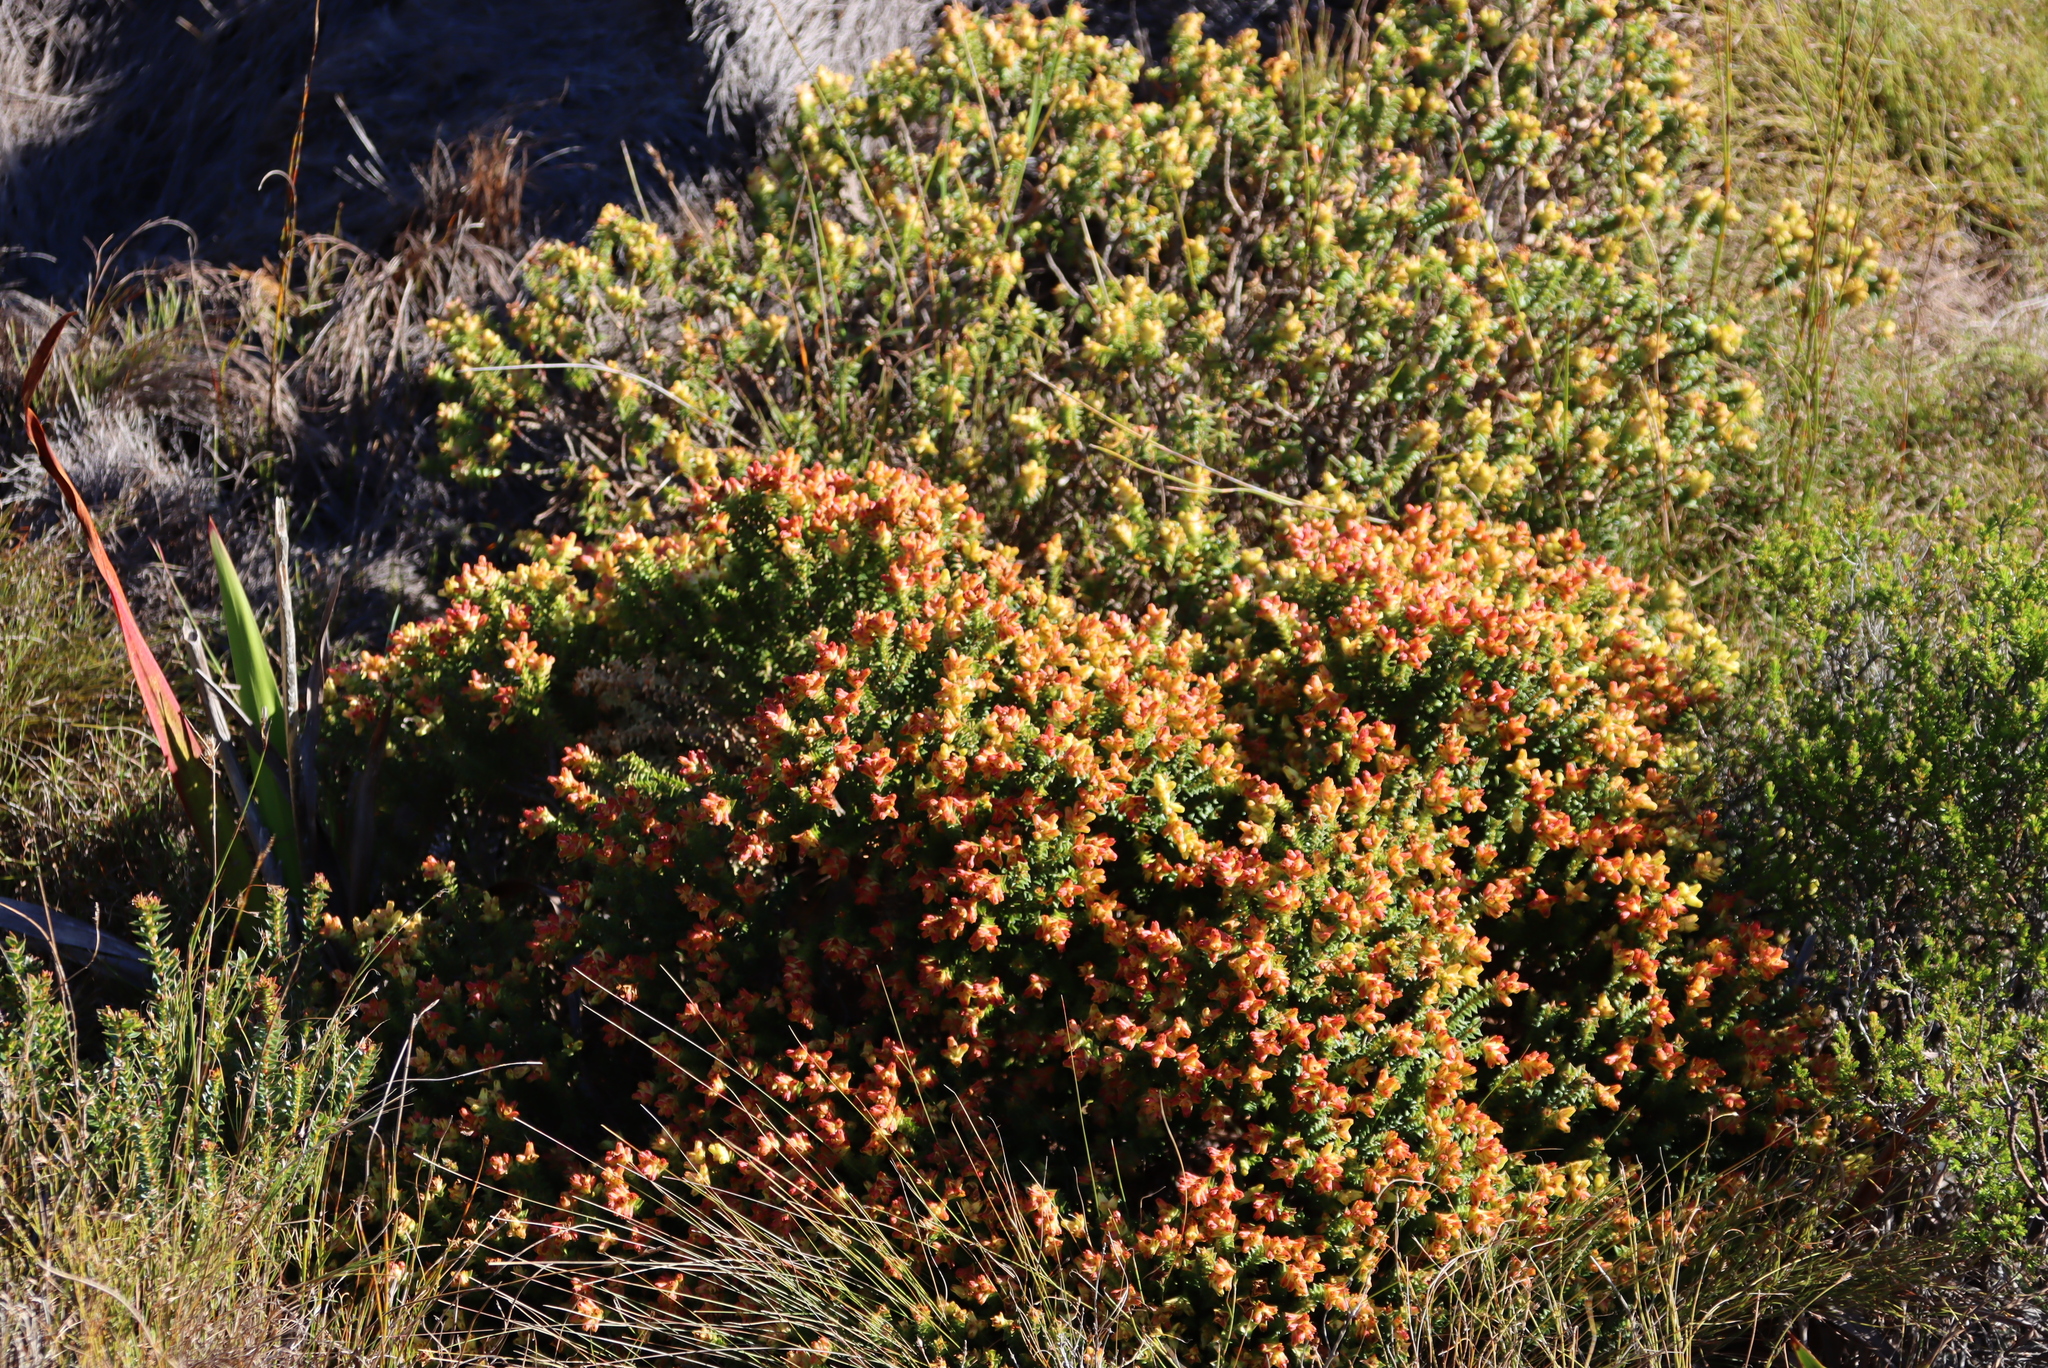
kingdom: Plantae
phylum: Tracheophyta
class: Magnoliopsida
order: Myrtales
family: Penaeaceae
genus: Penaea
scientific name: Penaea mucronata
